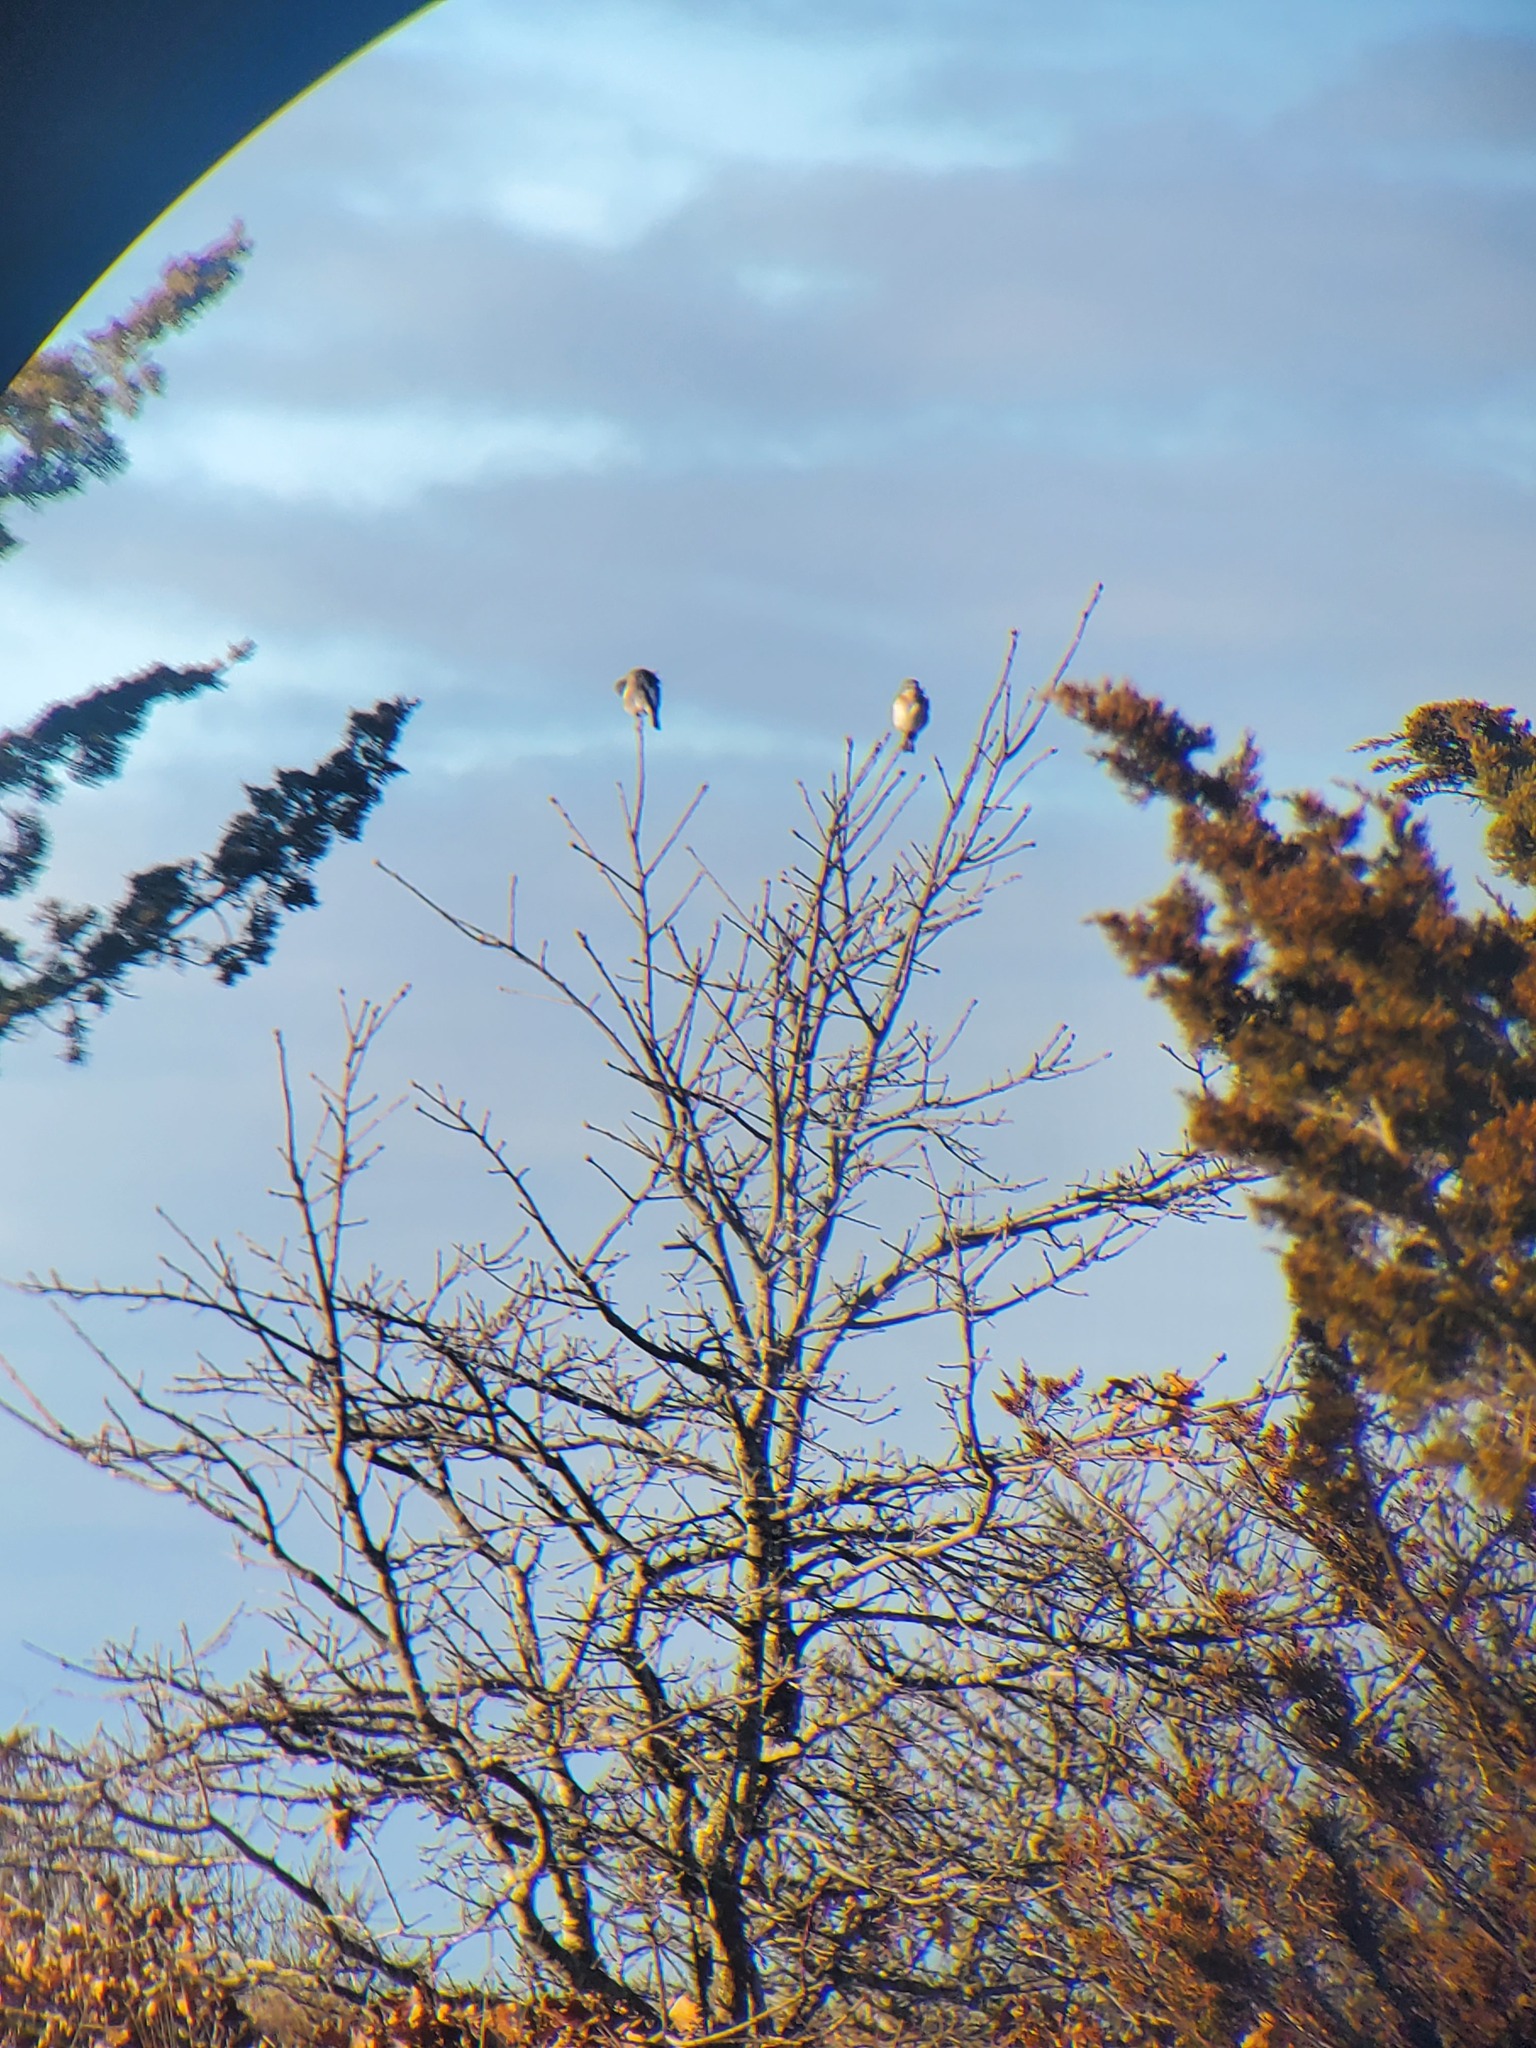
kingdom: Animalia
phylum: Chordata
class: Aves
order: Passeriformes
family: Turdidae
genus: Sialia
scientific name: Sialia sialis
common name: Eastern bluebird
